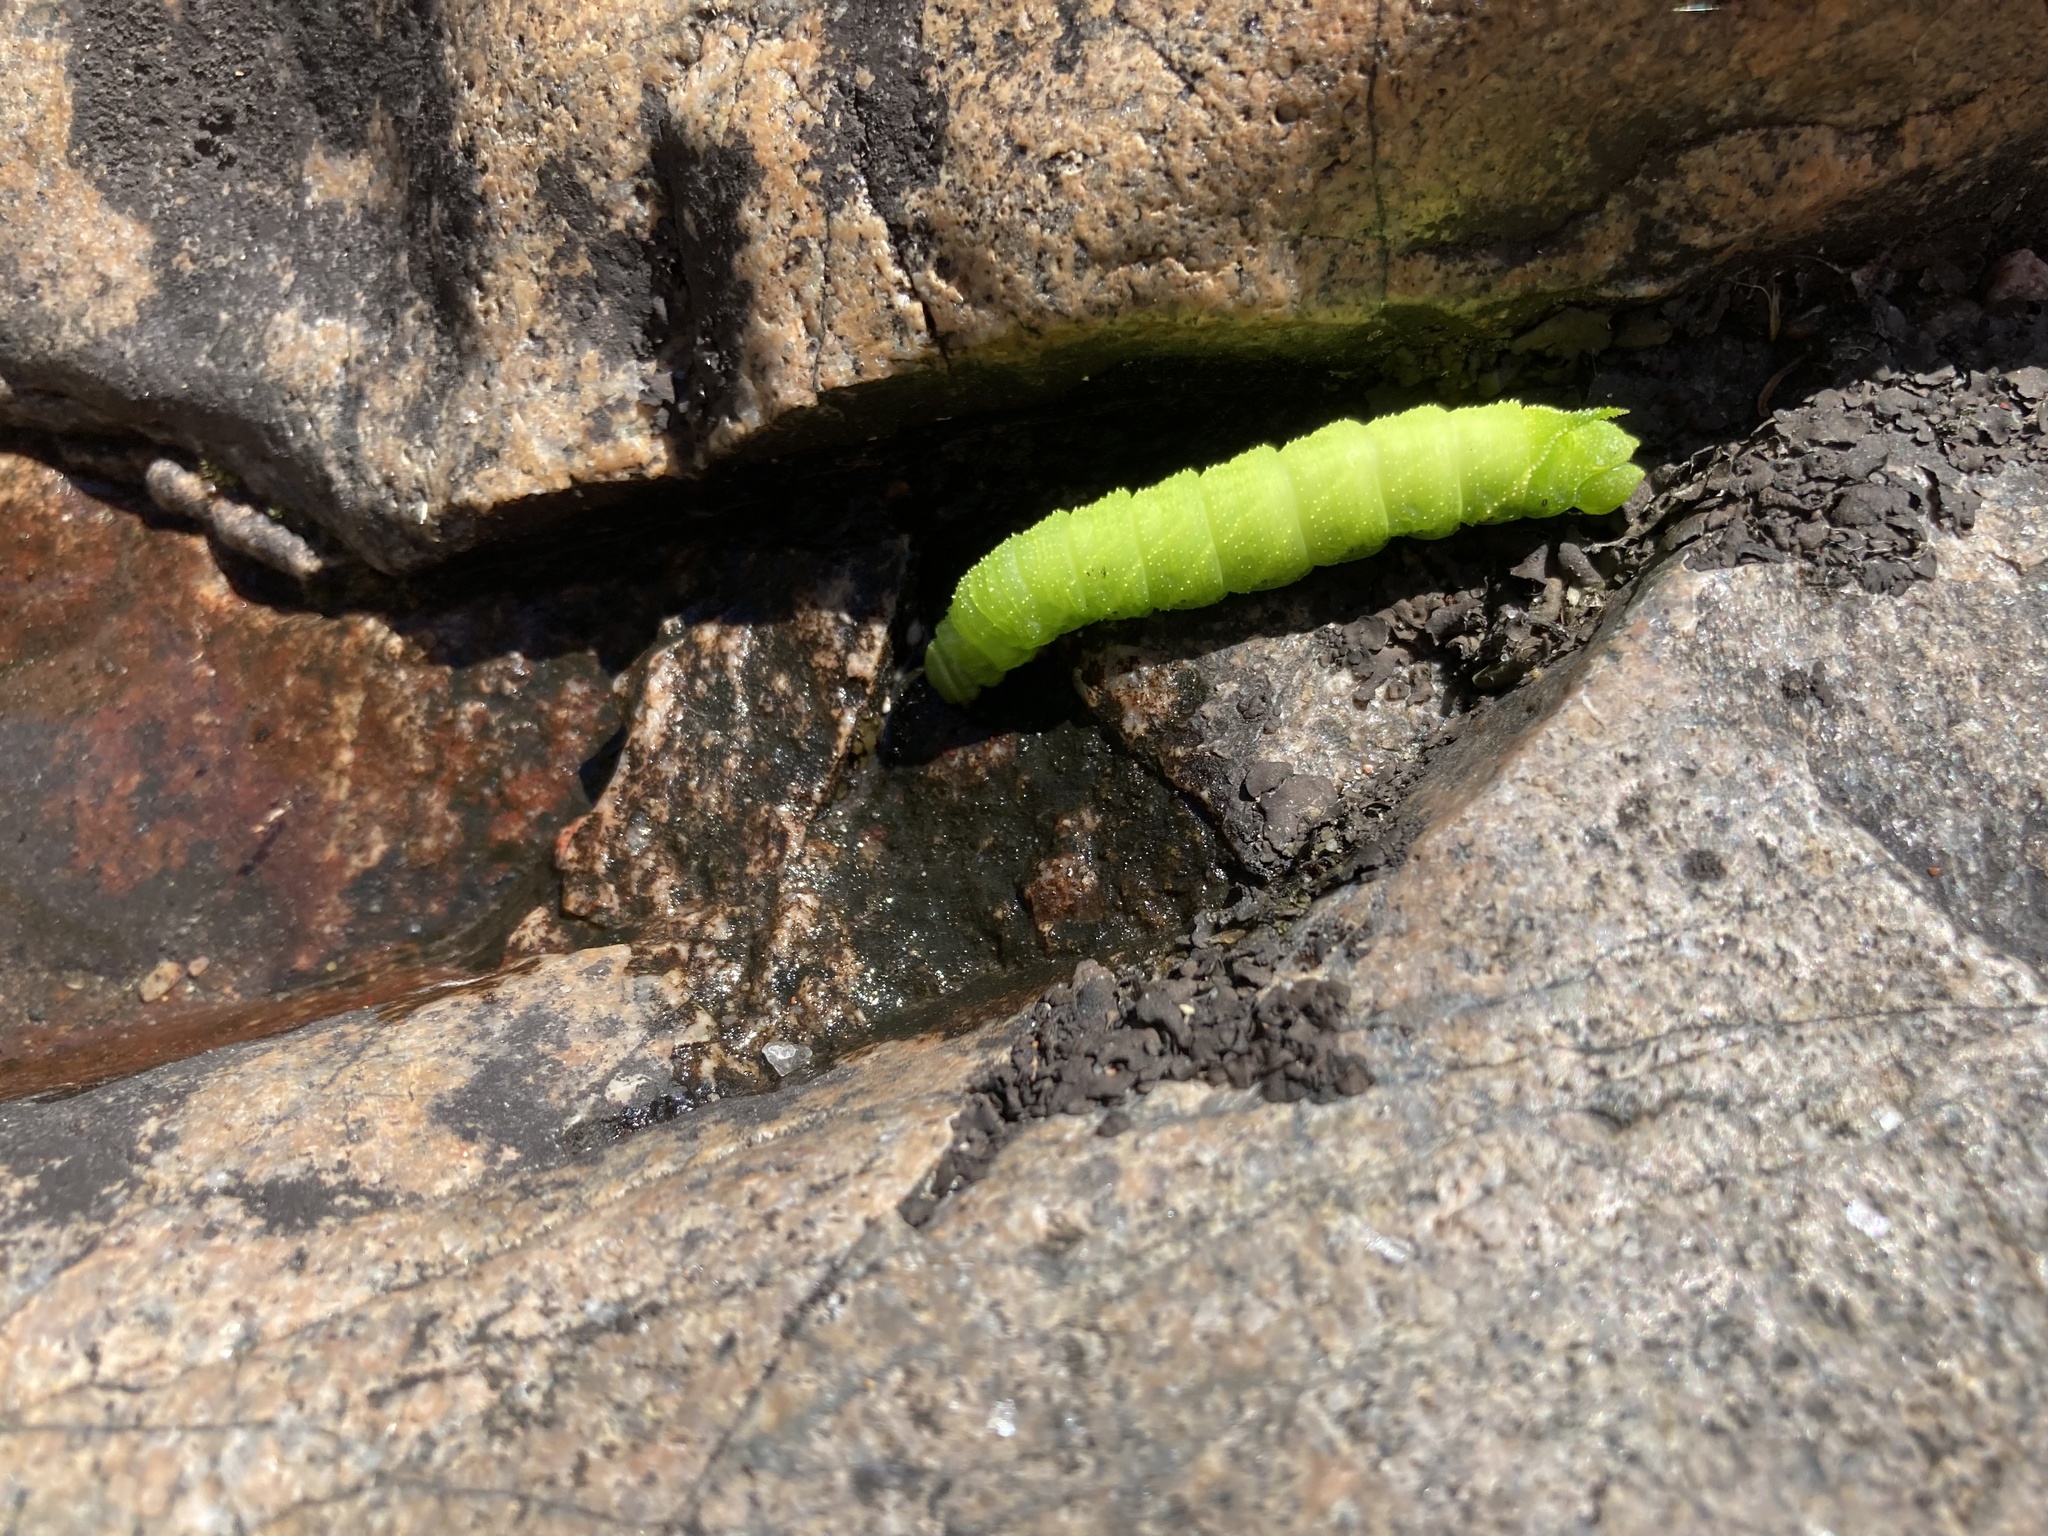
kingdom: Animalia
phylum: Arthropoda
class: Insecta
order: Lepidoptera
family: Sphingidae
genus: Paonias
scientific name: Paonias excaecata
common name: Blind-eyed sphinx
